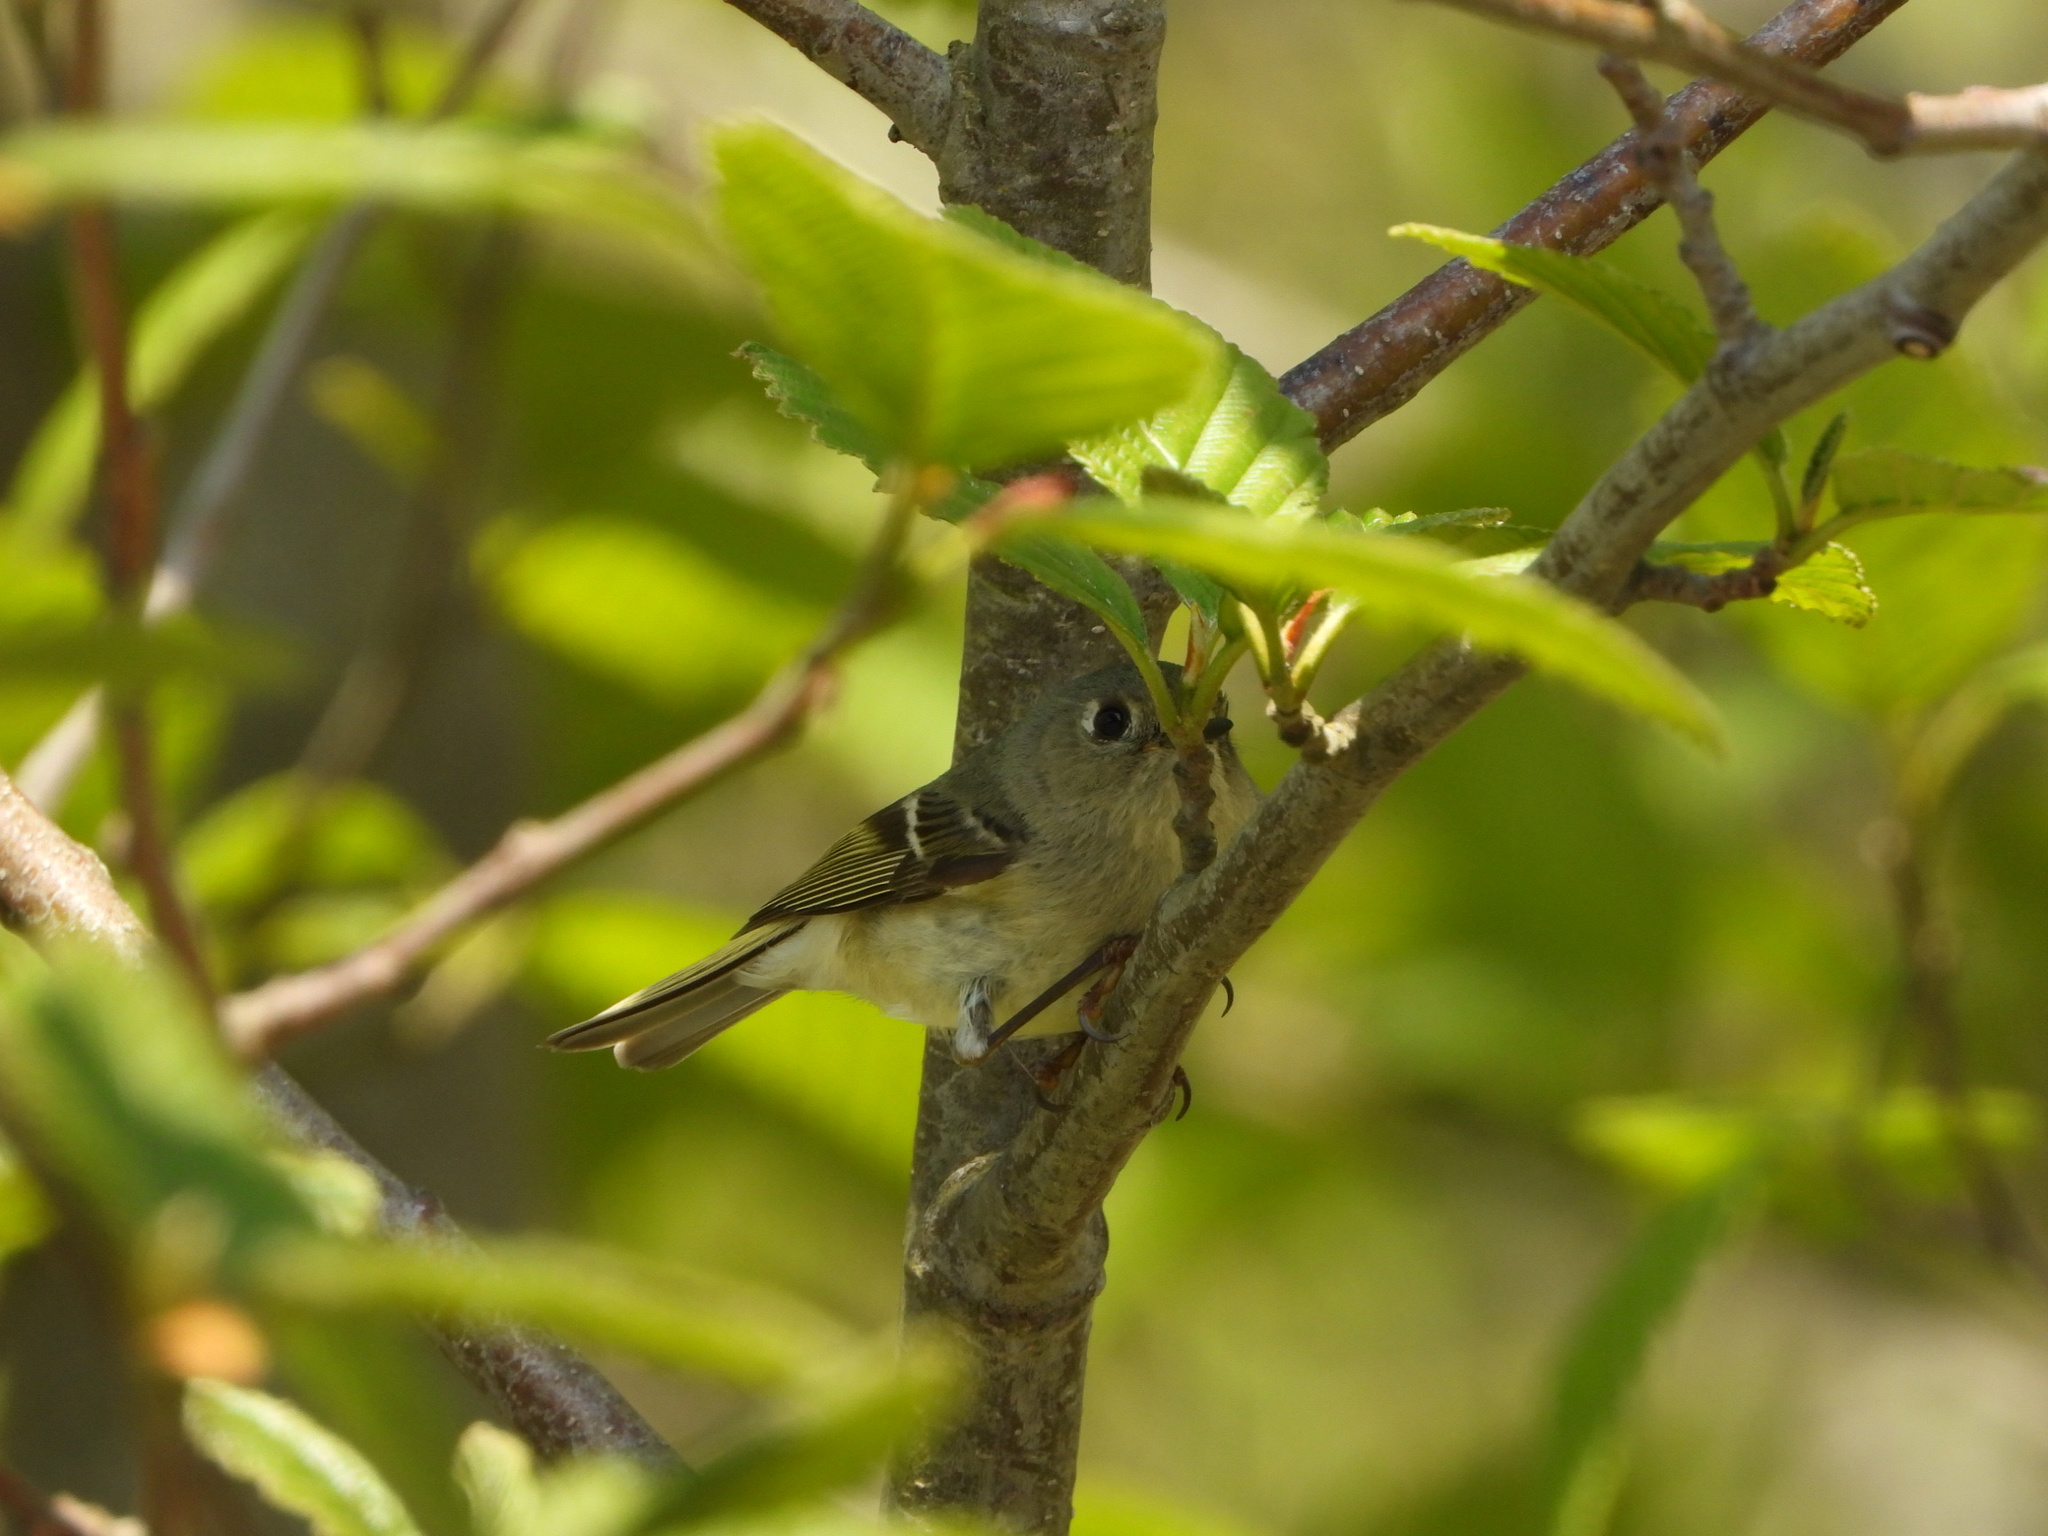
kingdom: Animalia
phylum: Chordata
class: Aves
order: Passeriformes
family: Regulidae
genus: Regulus
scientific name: Regulus calendula
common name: Ruby-crowned kinglet
